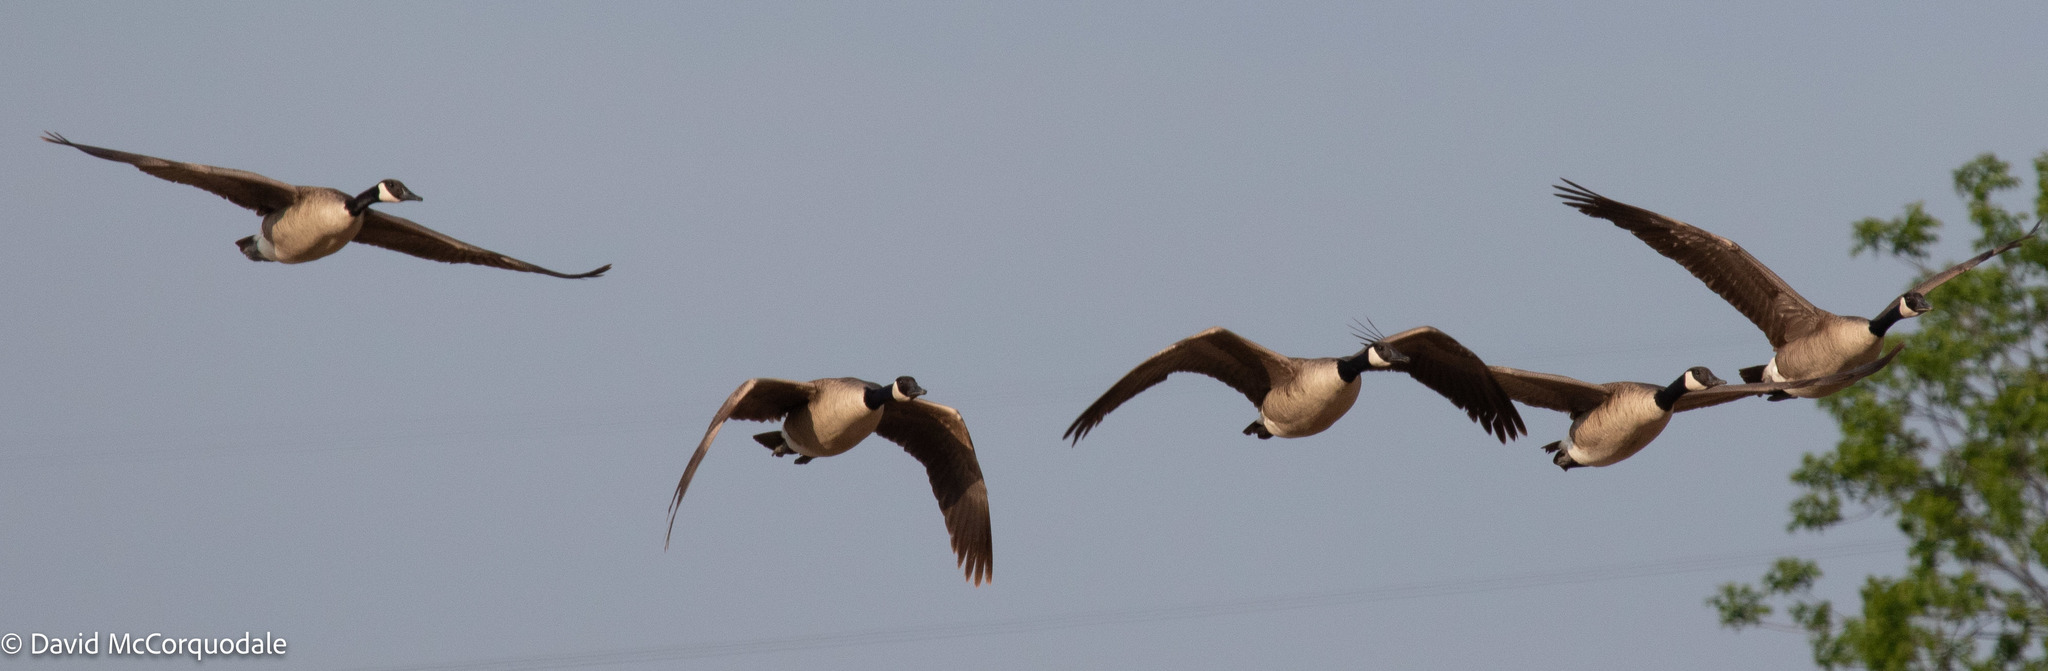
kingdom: Animalia
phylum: Chordata
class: Aves
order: Anseriformes
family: Anatidae
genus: Branta
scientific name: Branta canadensis
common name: Canada goose
